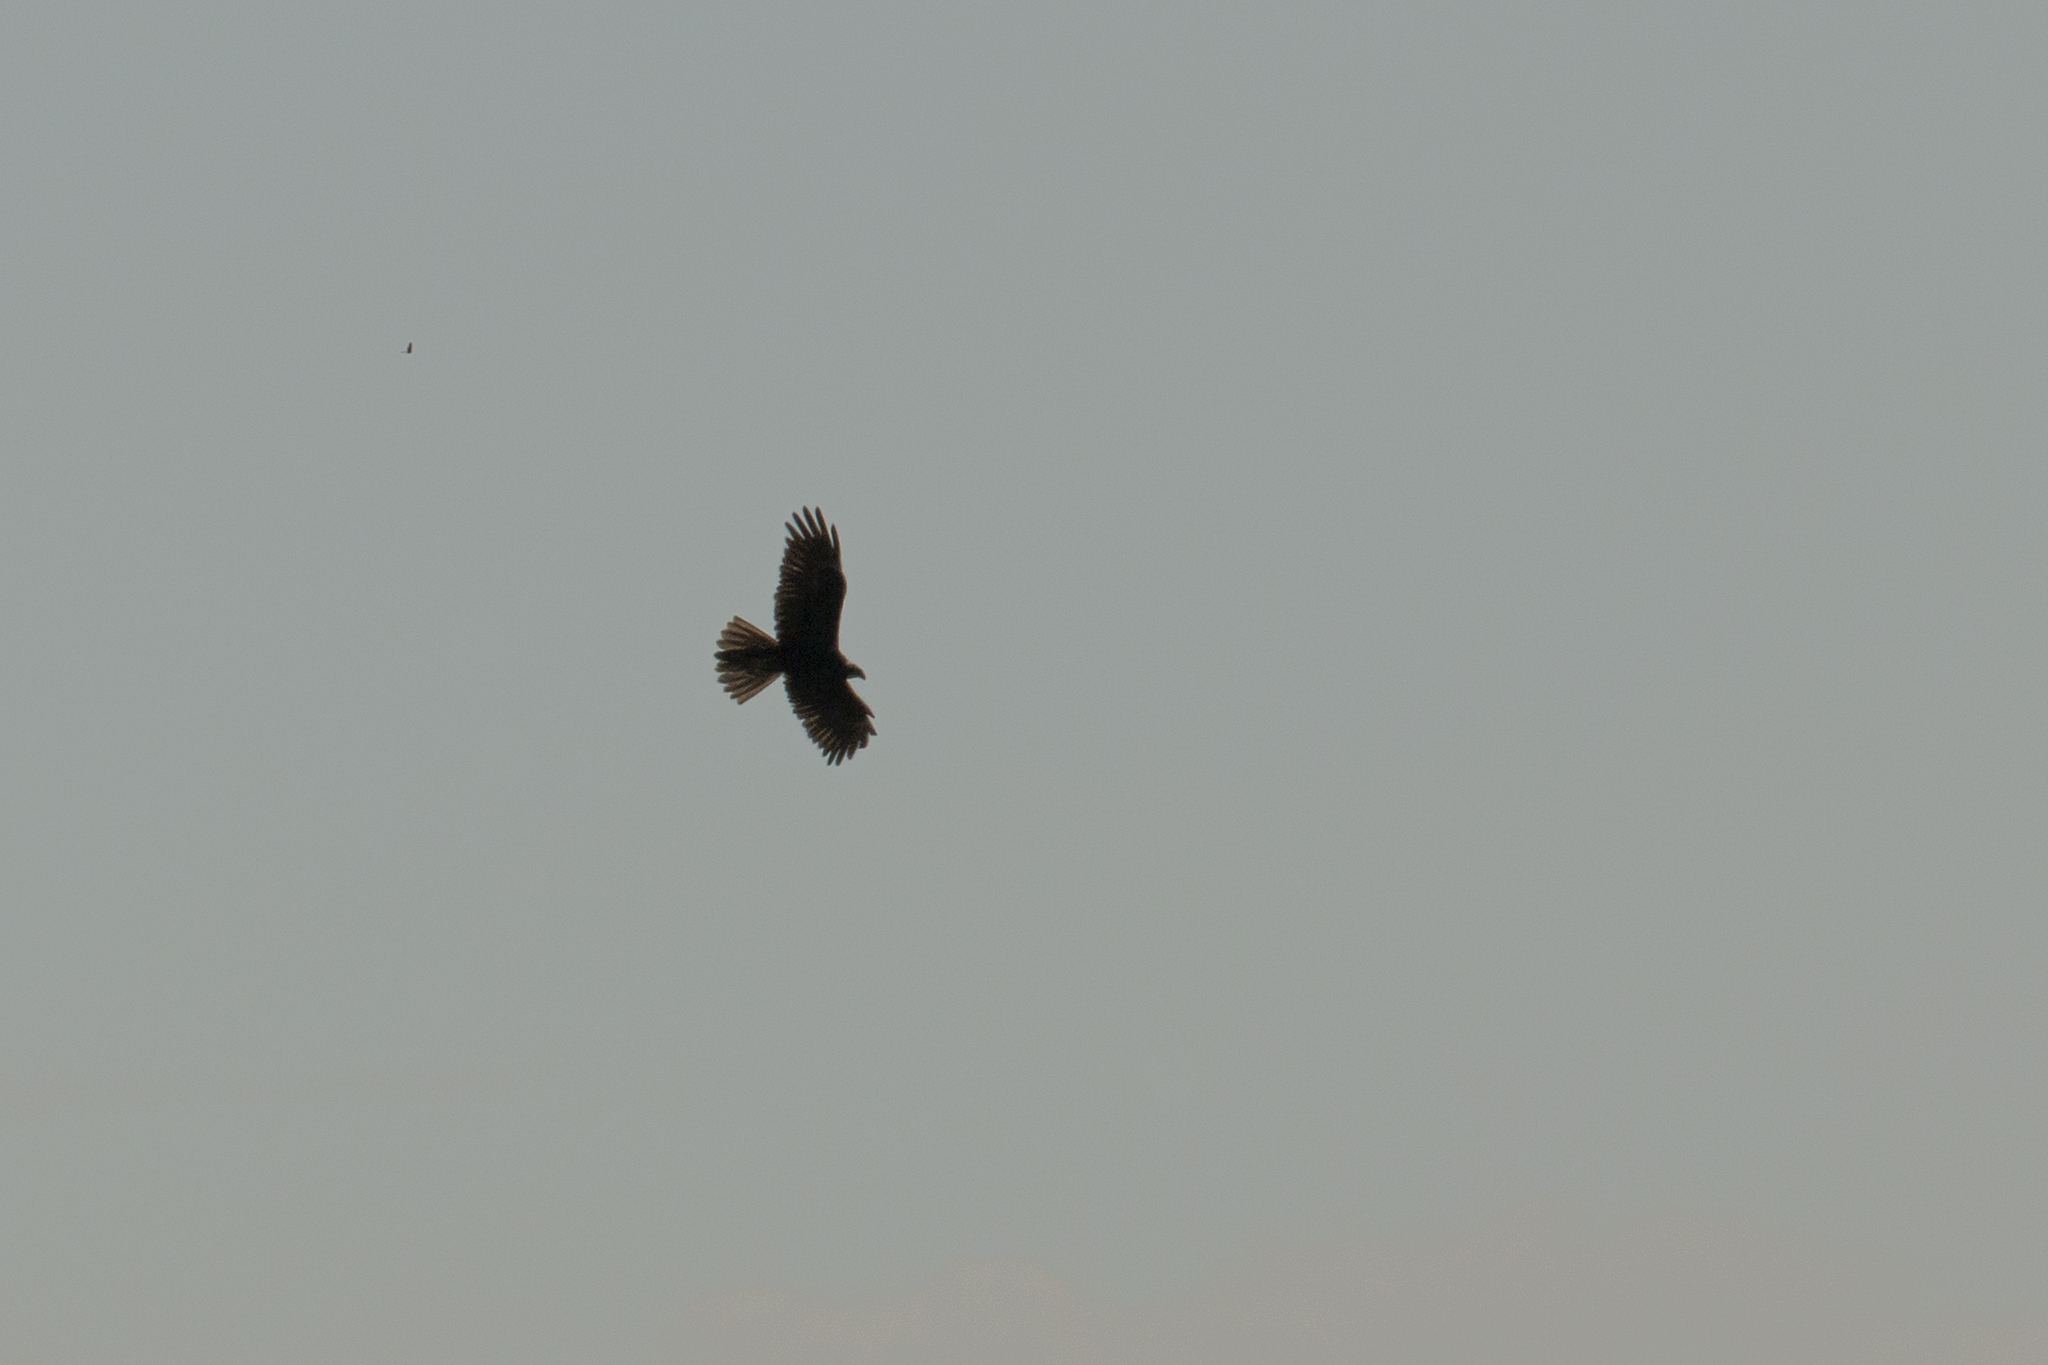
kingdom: Animalia
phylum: Chordata
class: Aves
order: Accipitriformes
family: Accipitridae
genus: Circus
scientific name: Circus aeruginosus
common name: Western marsh harrier
